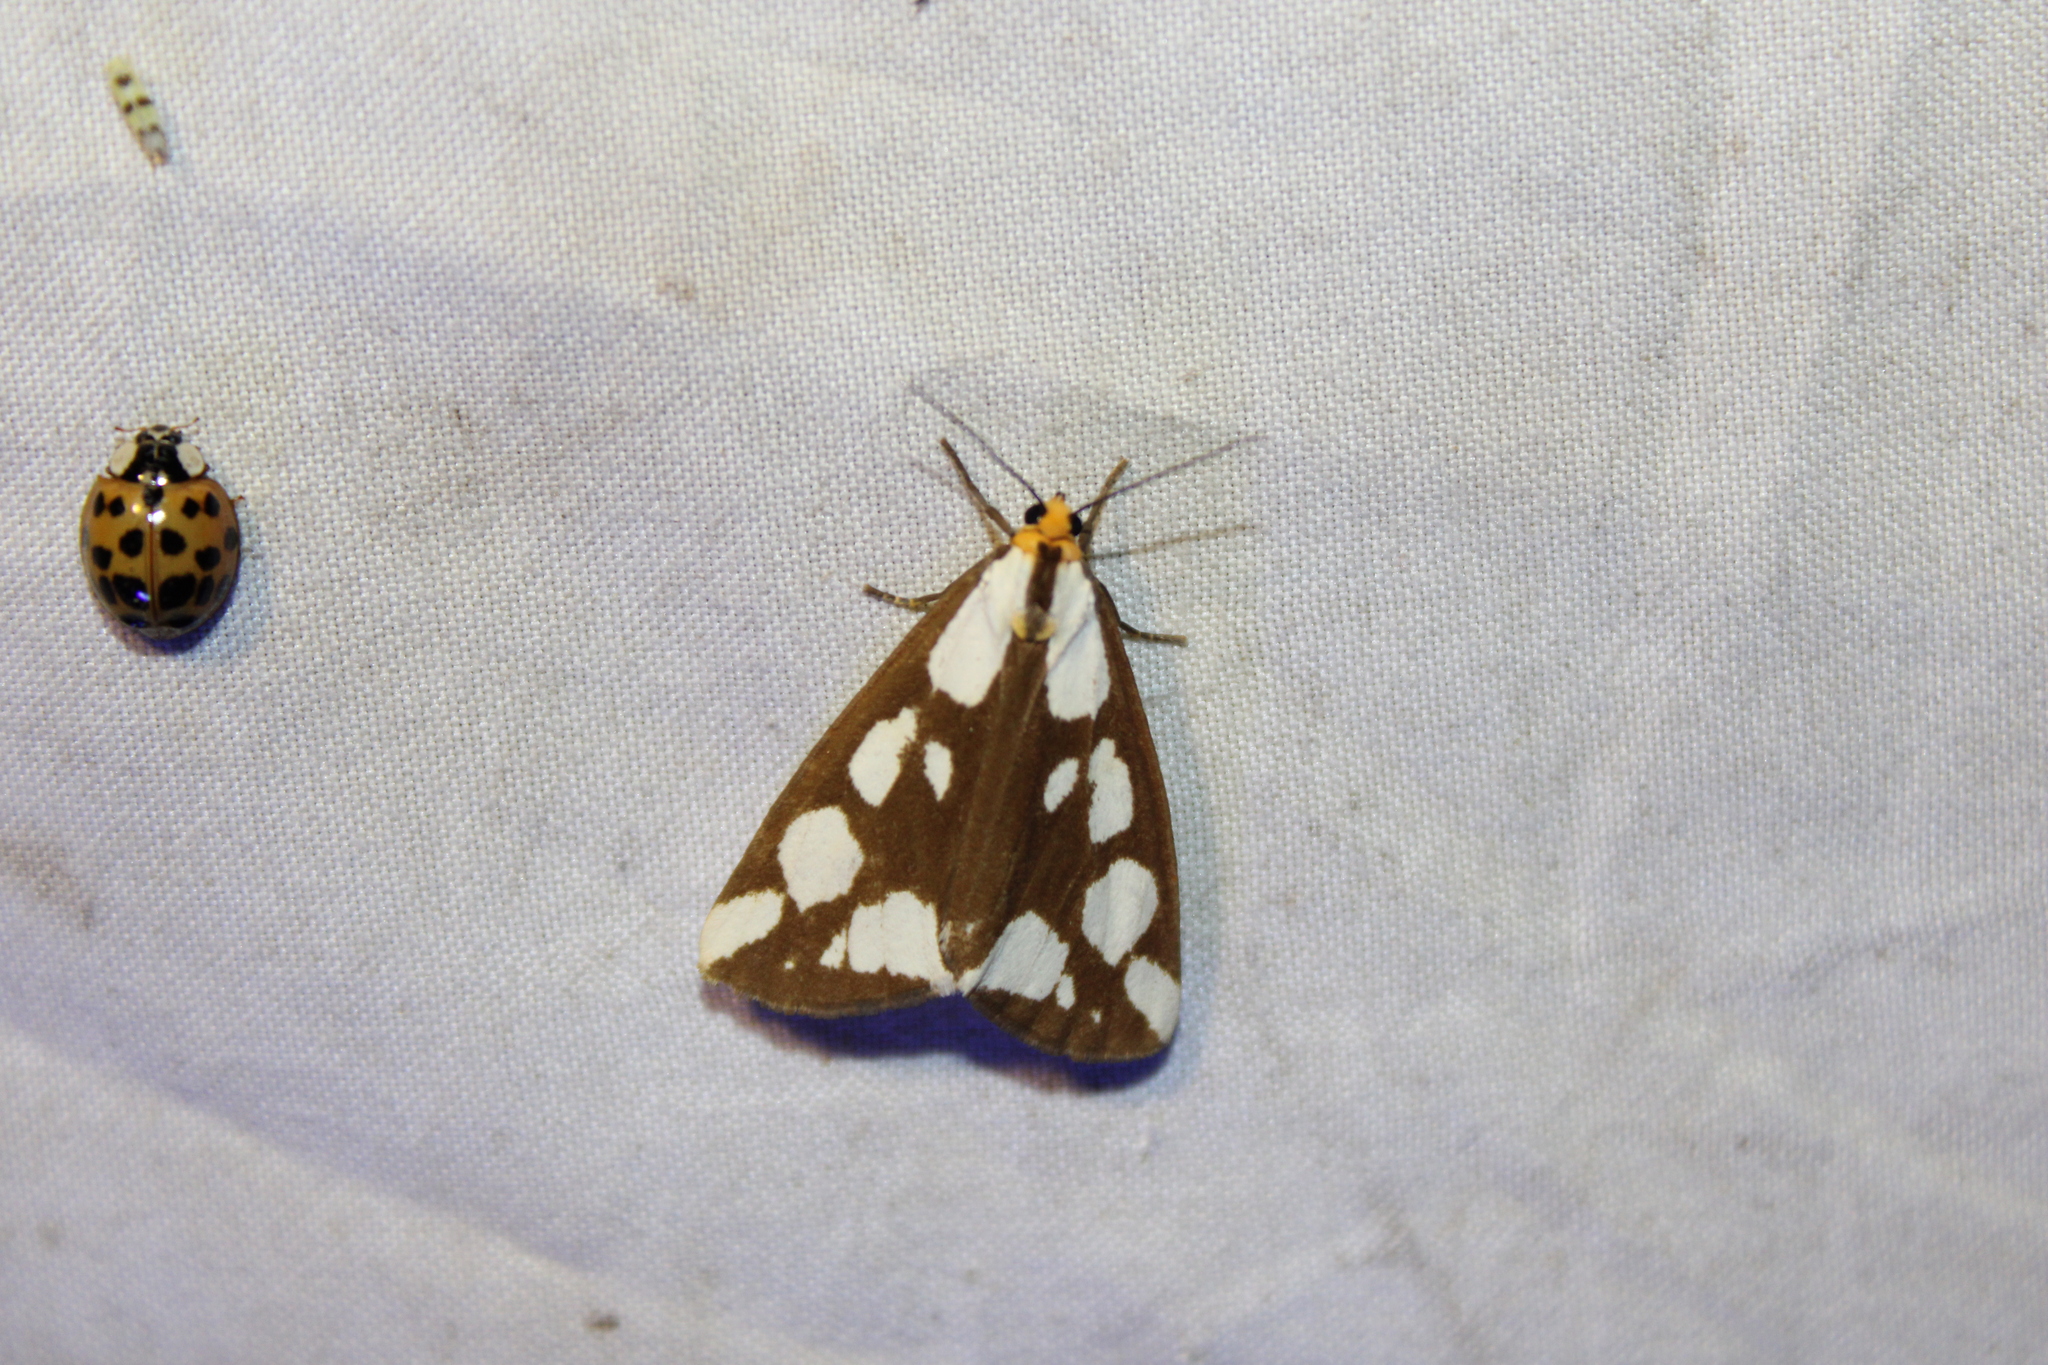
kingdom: Animalia
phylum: Arthropoda
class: Insecta
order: Lepidoptera
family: Erebidae
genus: Haploa
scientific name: Haploa confusa
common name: Confused haploa moth
